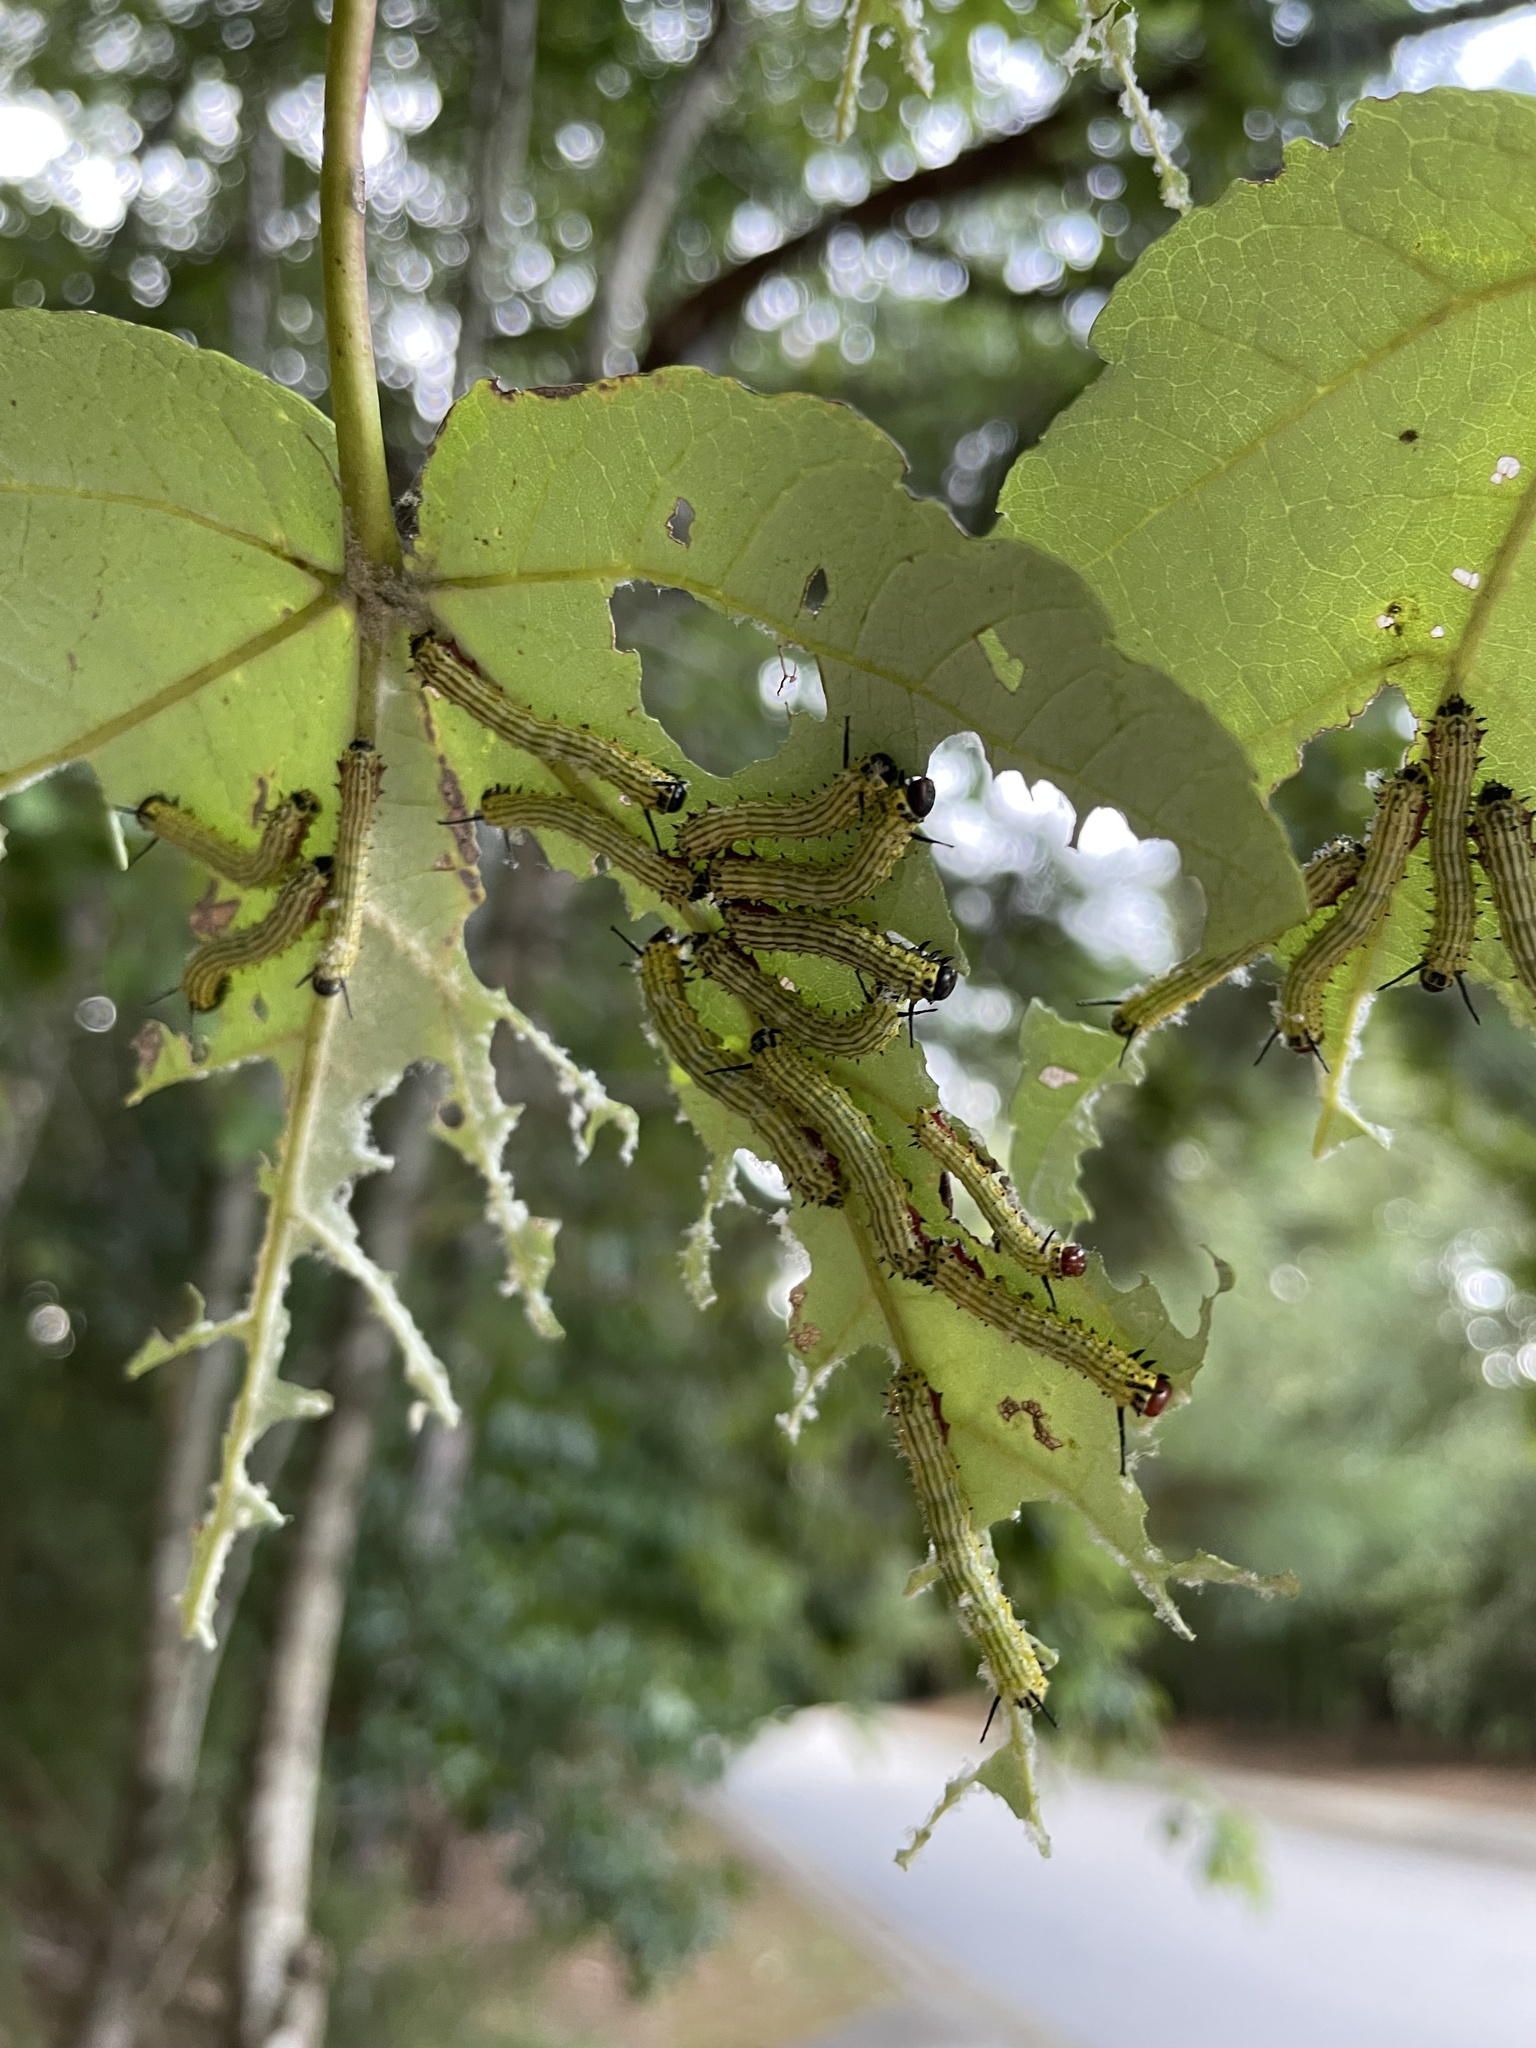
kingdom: Animalia
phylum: Arthropoda
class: Insecta
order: Lepidoptera
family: Saturniidae
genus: Dryocampa
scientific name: Dryocampa rubicunda
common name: Rosy maple moth
